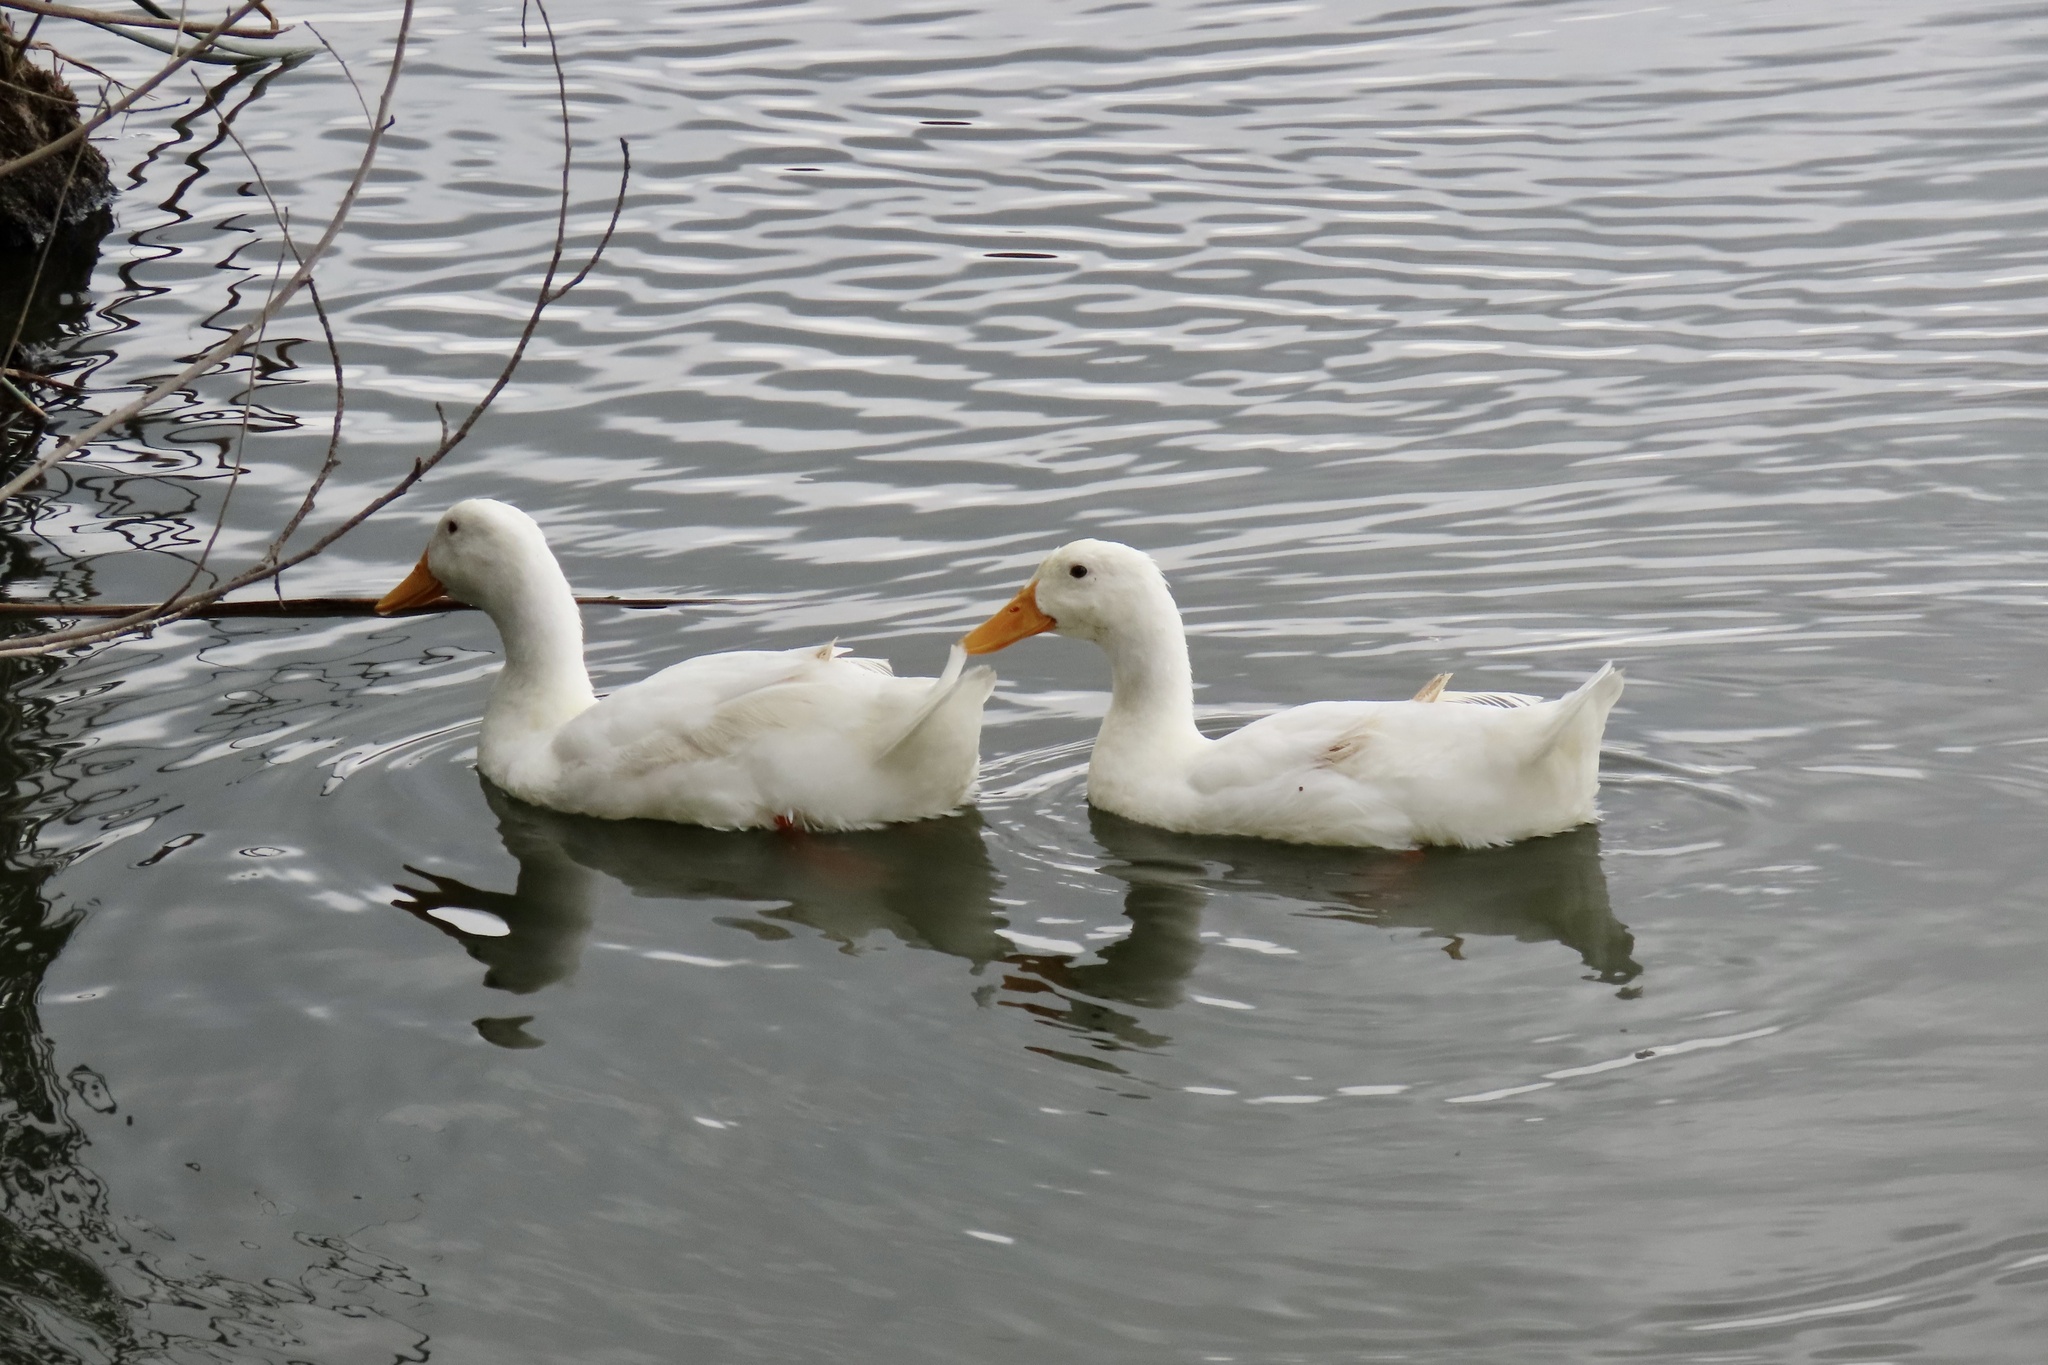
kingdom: Animalia
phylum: Chordata
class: Aves
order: Anseriformes
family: Anatidae
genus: Anas
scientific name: Anas platyrhynchos
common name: Mallard
